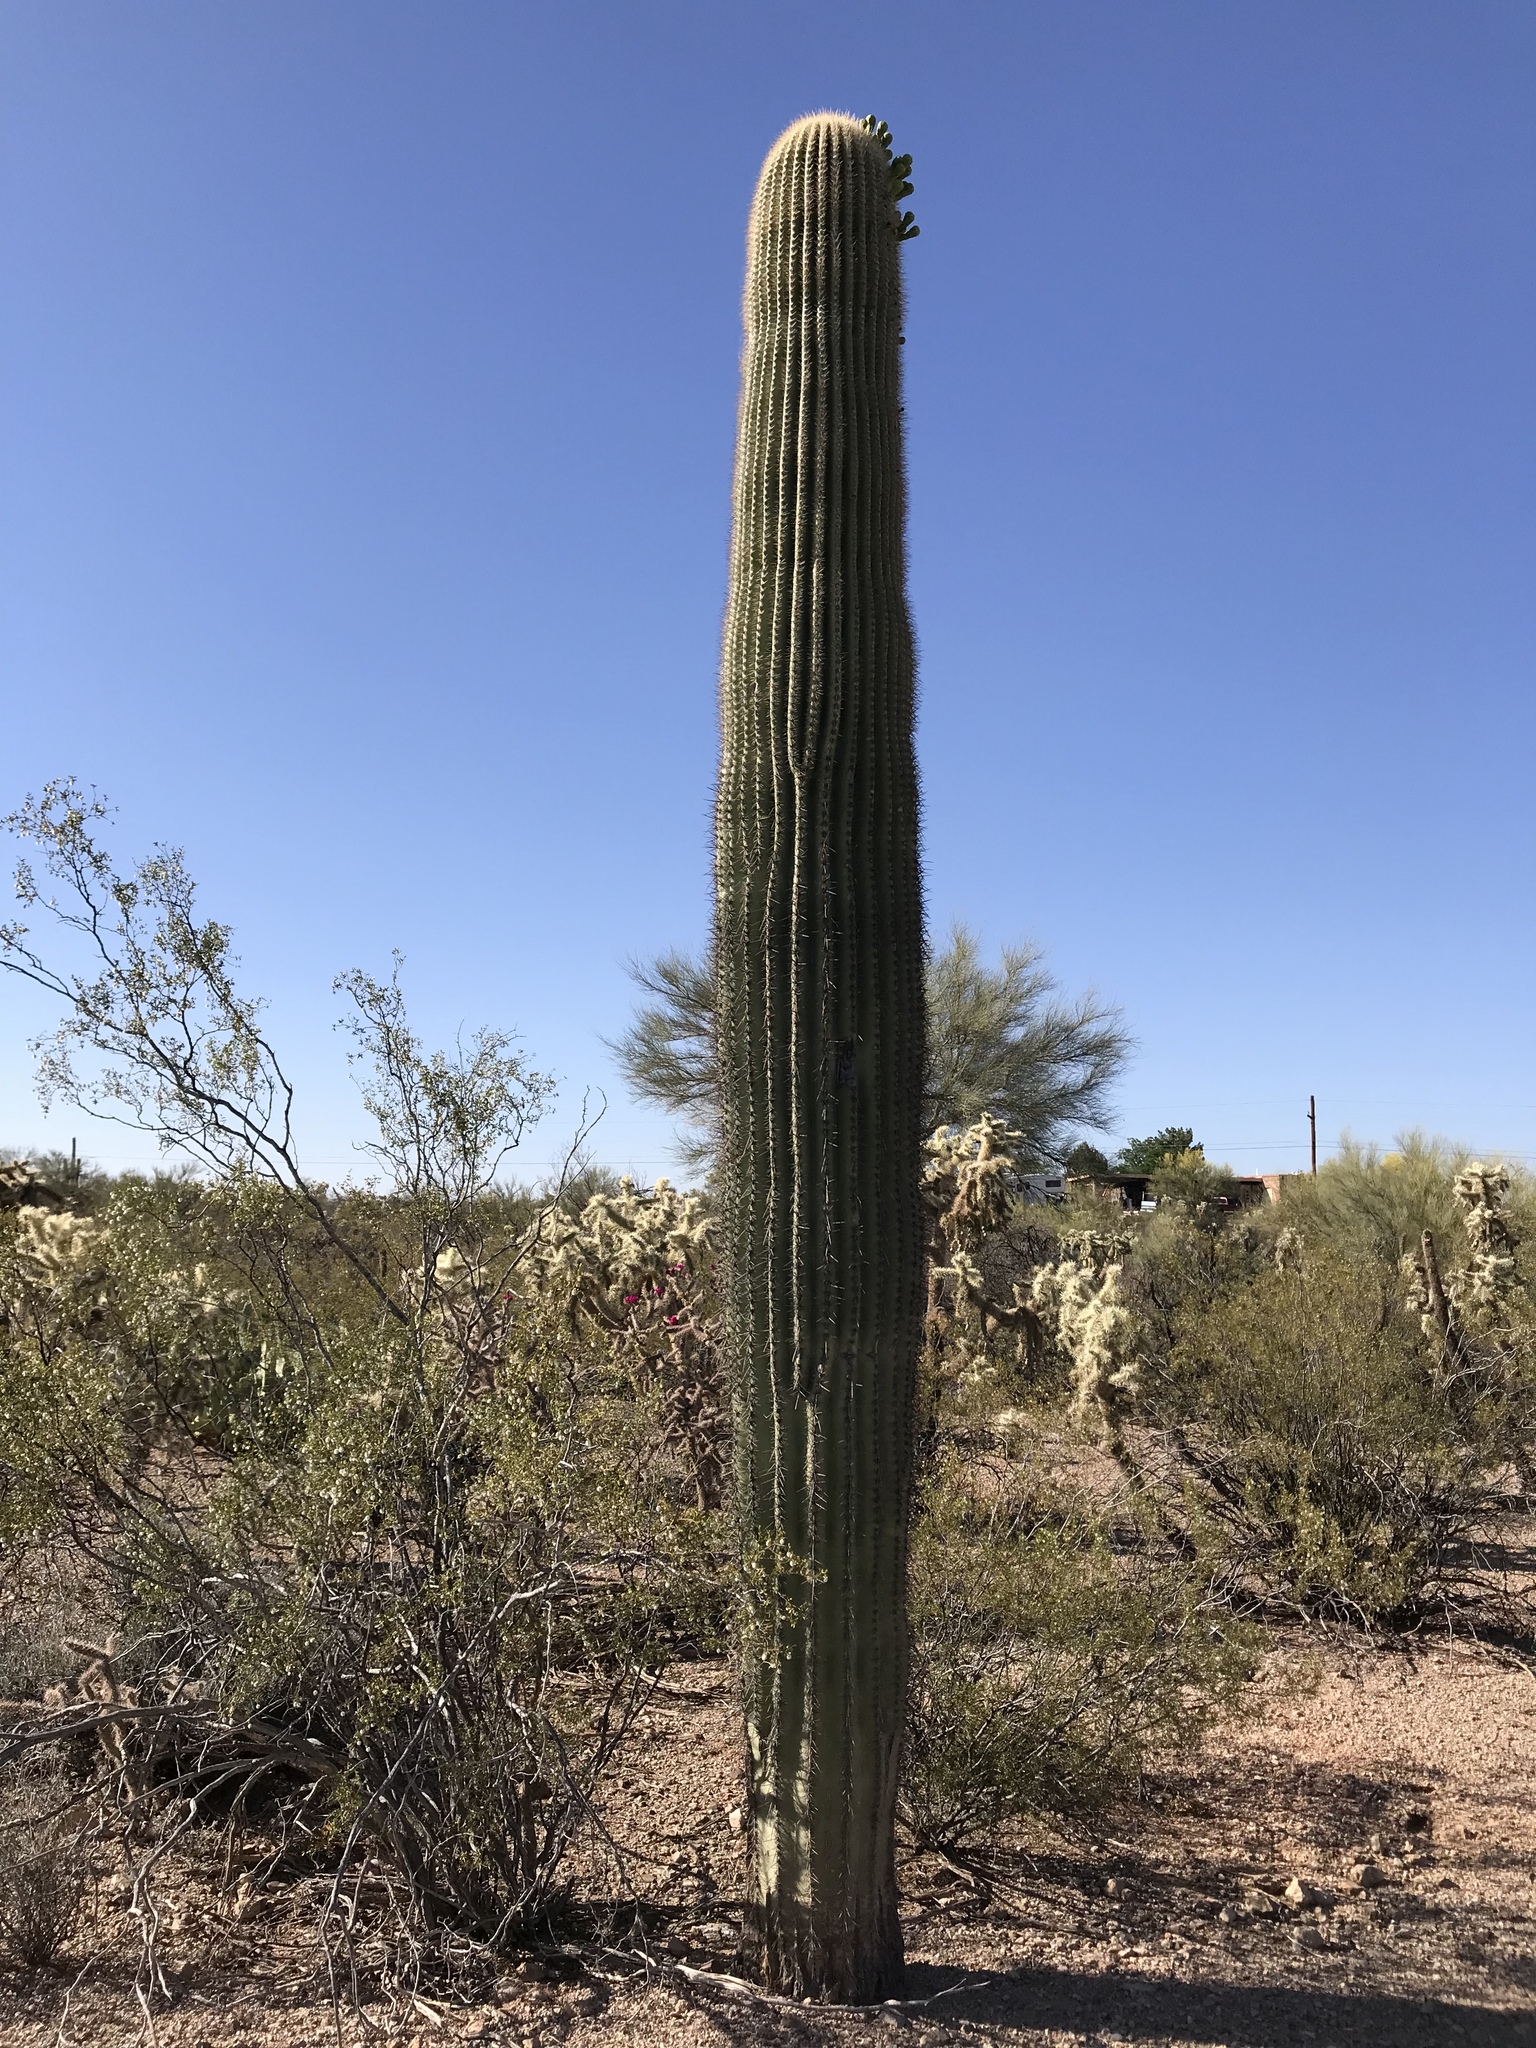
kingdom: Plantae
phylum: Tracheophyta
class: Magnoliopsida
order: Caryophyllales
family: Cactaceae
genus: Carnegiea
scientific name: Carnegiea gigantea
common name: Saguaro
